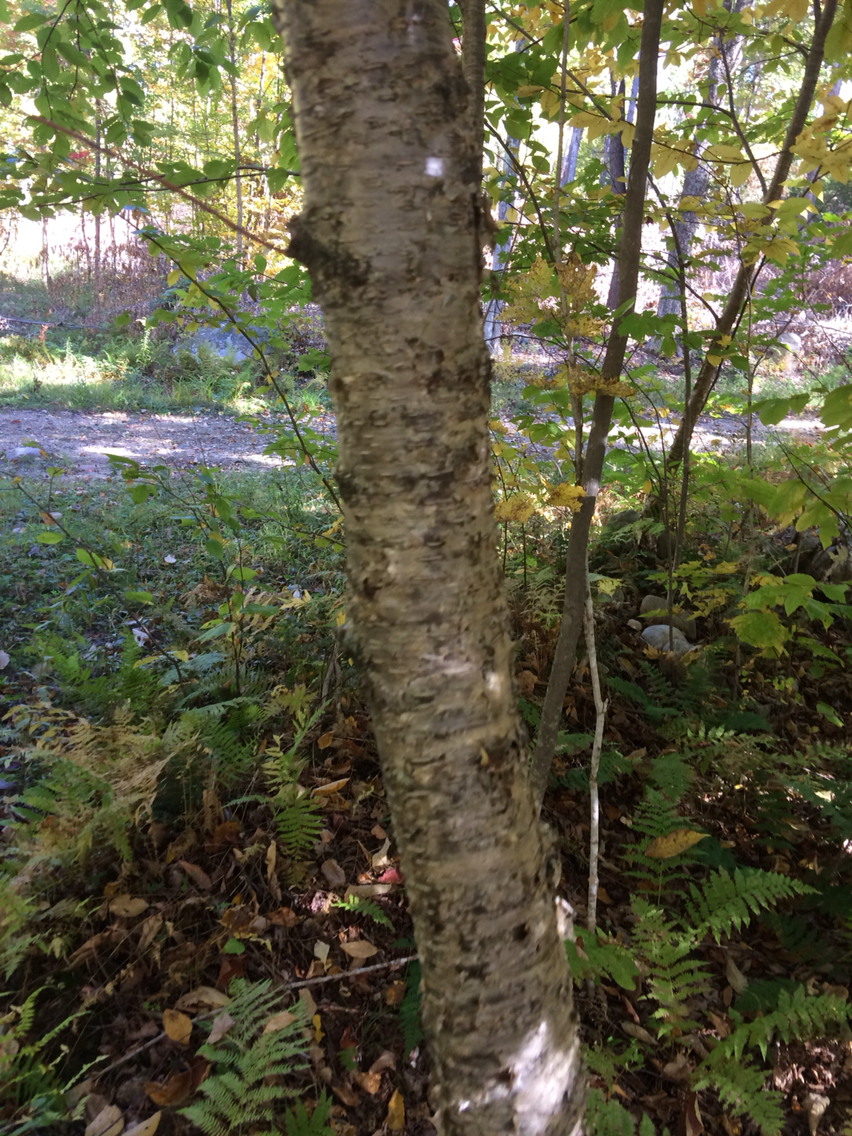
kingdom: Plantae
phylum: Tracheophyta
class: Magnoliopsida
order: Fagales
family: Betulaceae
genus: Betula
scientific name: Betula alleghaniensis
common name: Yellow birch
